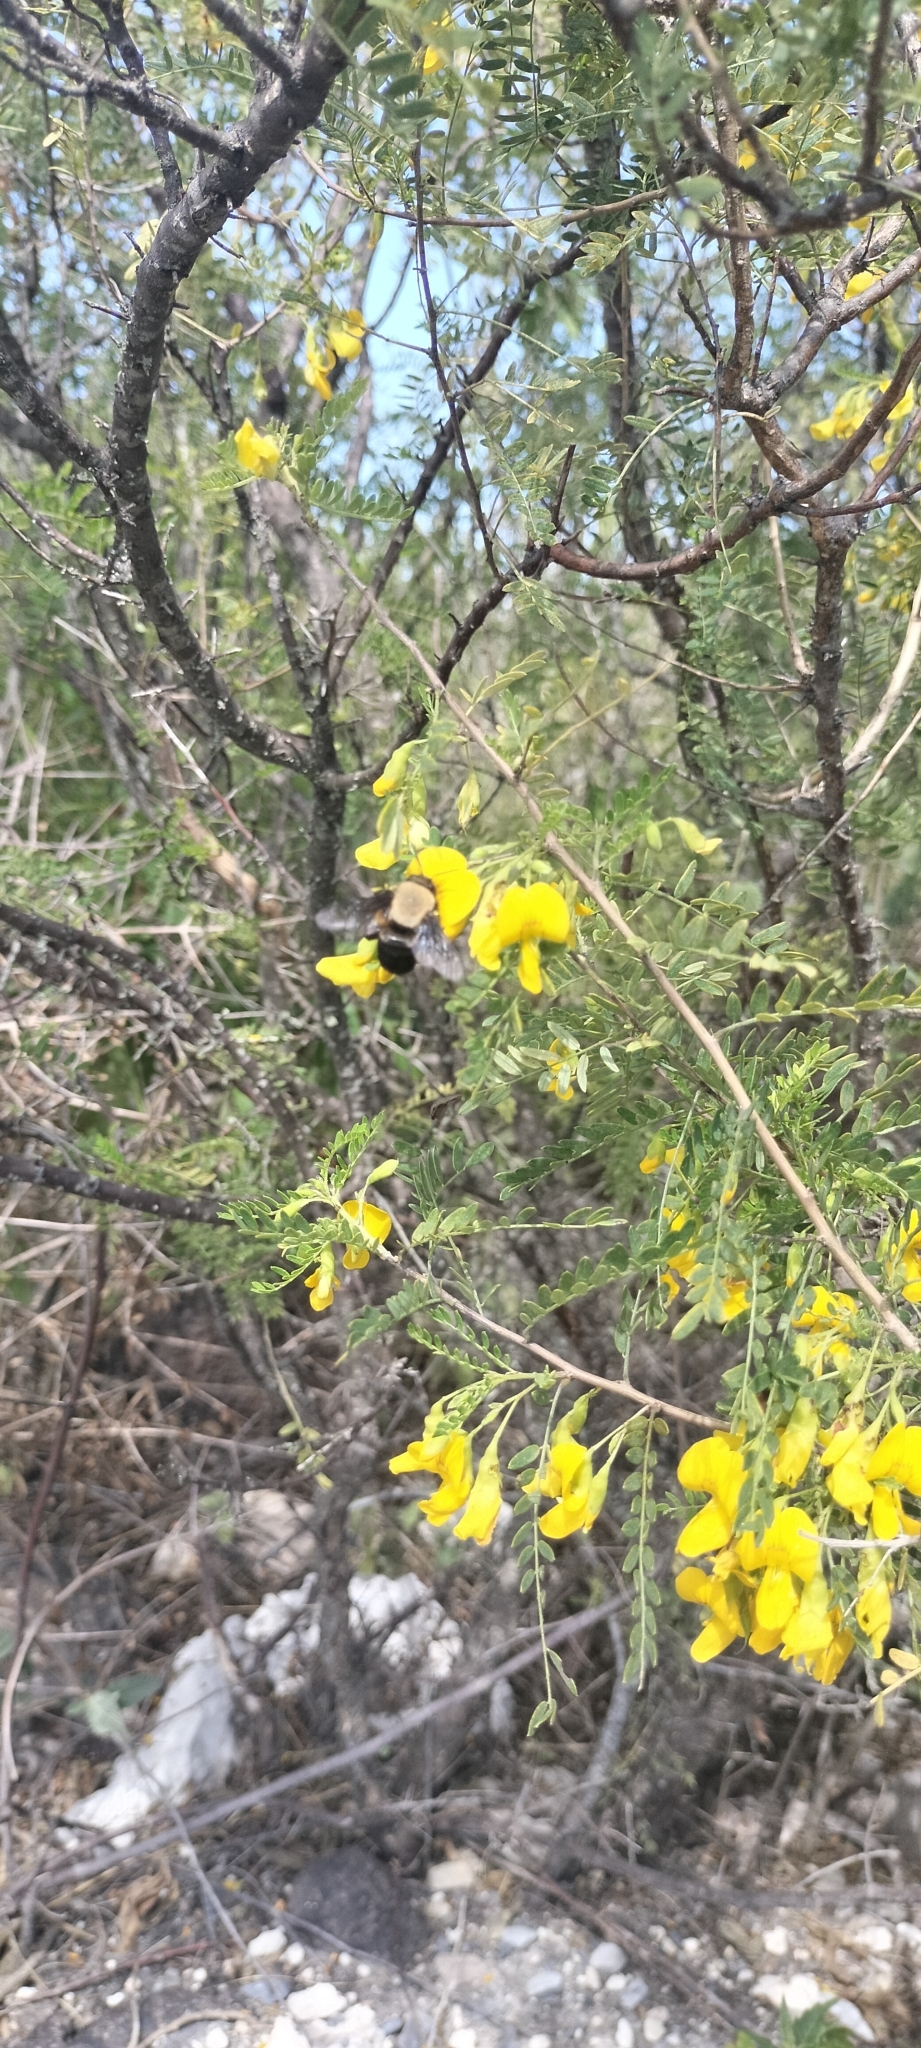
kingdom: Animalia
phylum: Arthropoda
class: Insecta
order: Hymenoptera
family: Apidae
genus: Centris
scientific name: Centris nitida
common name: Oil-collecting bee
